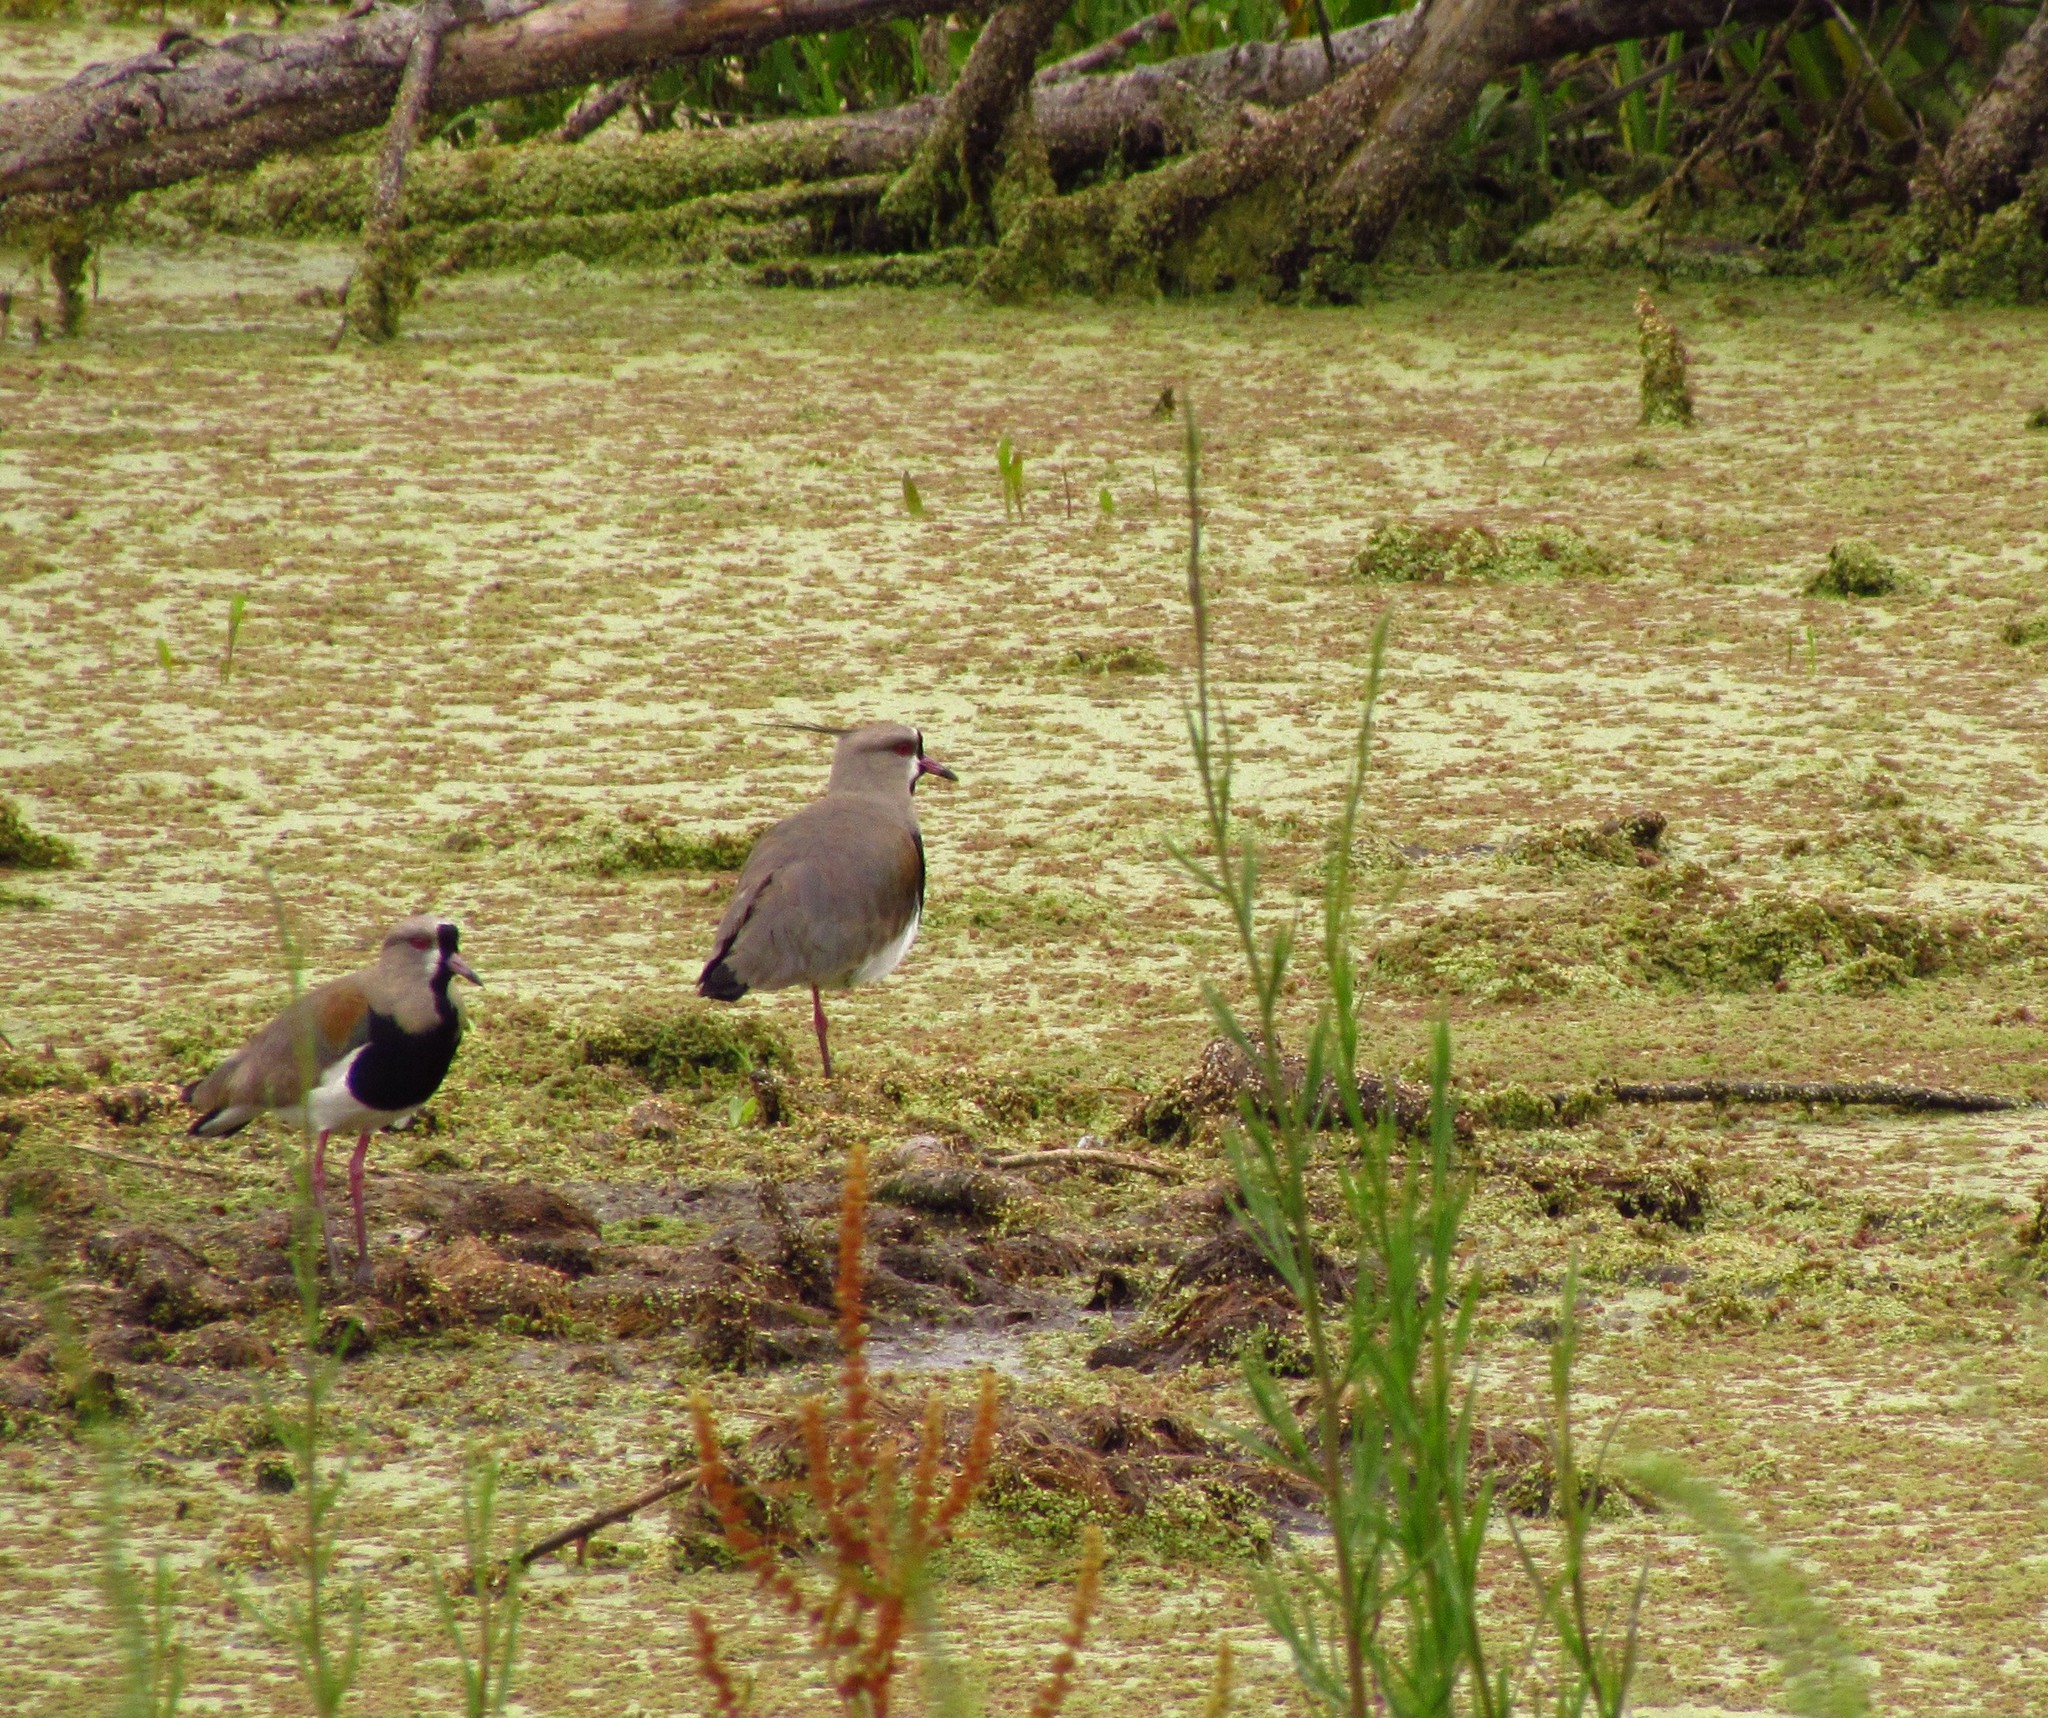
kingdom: Animalia
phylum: Chordata
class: Aves
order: Charadriiformes
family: Charadriidae
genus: Vanellus
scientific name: Vanellus chilensis
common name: Southern lapwing
